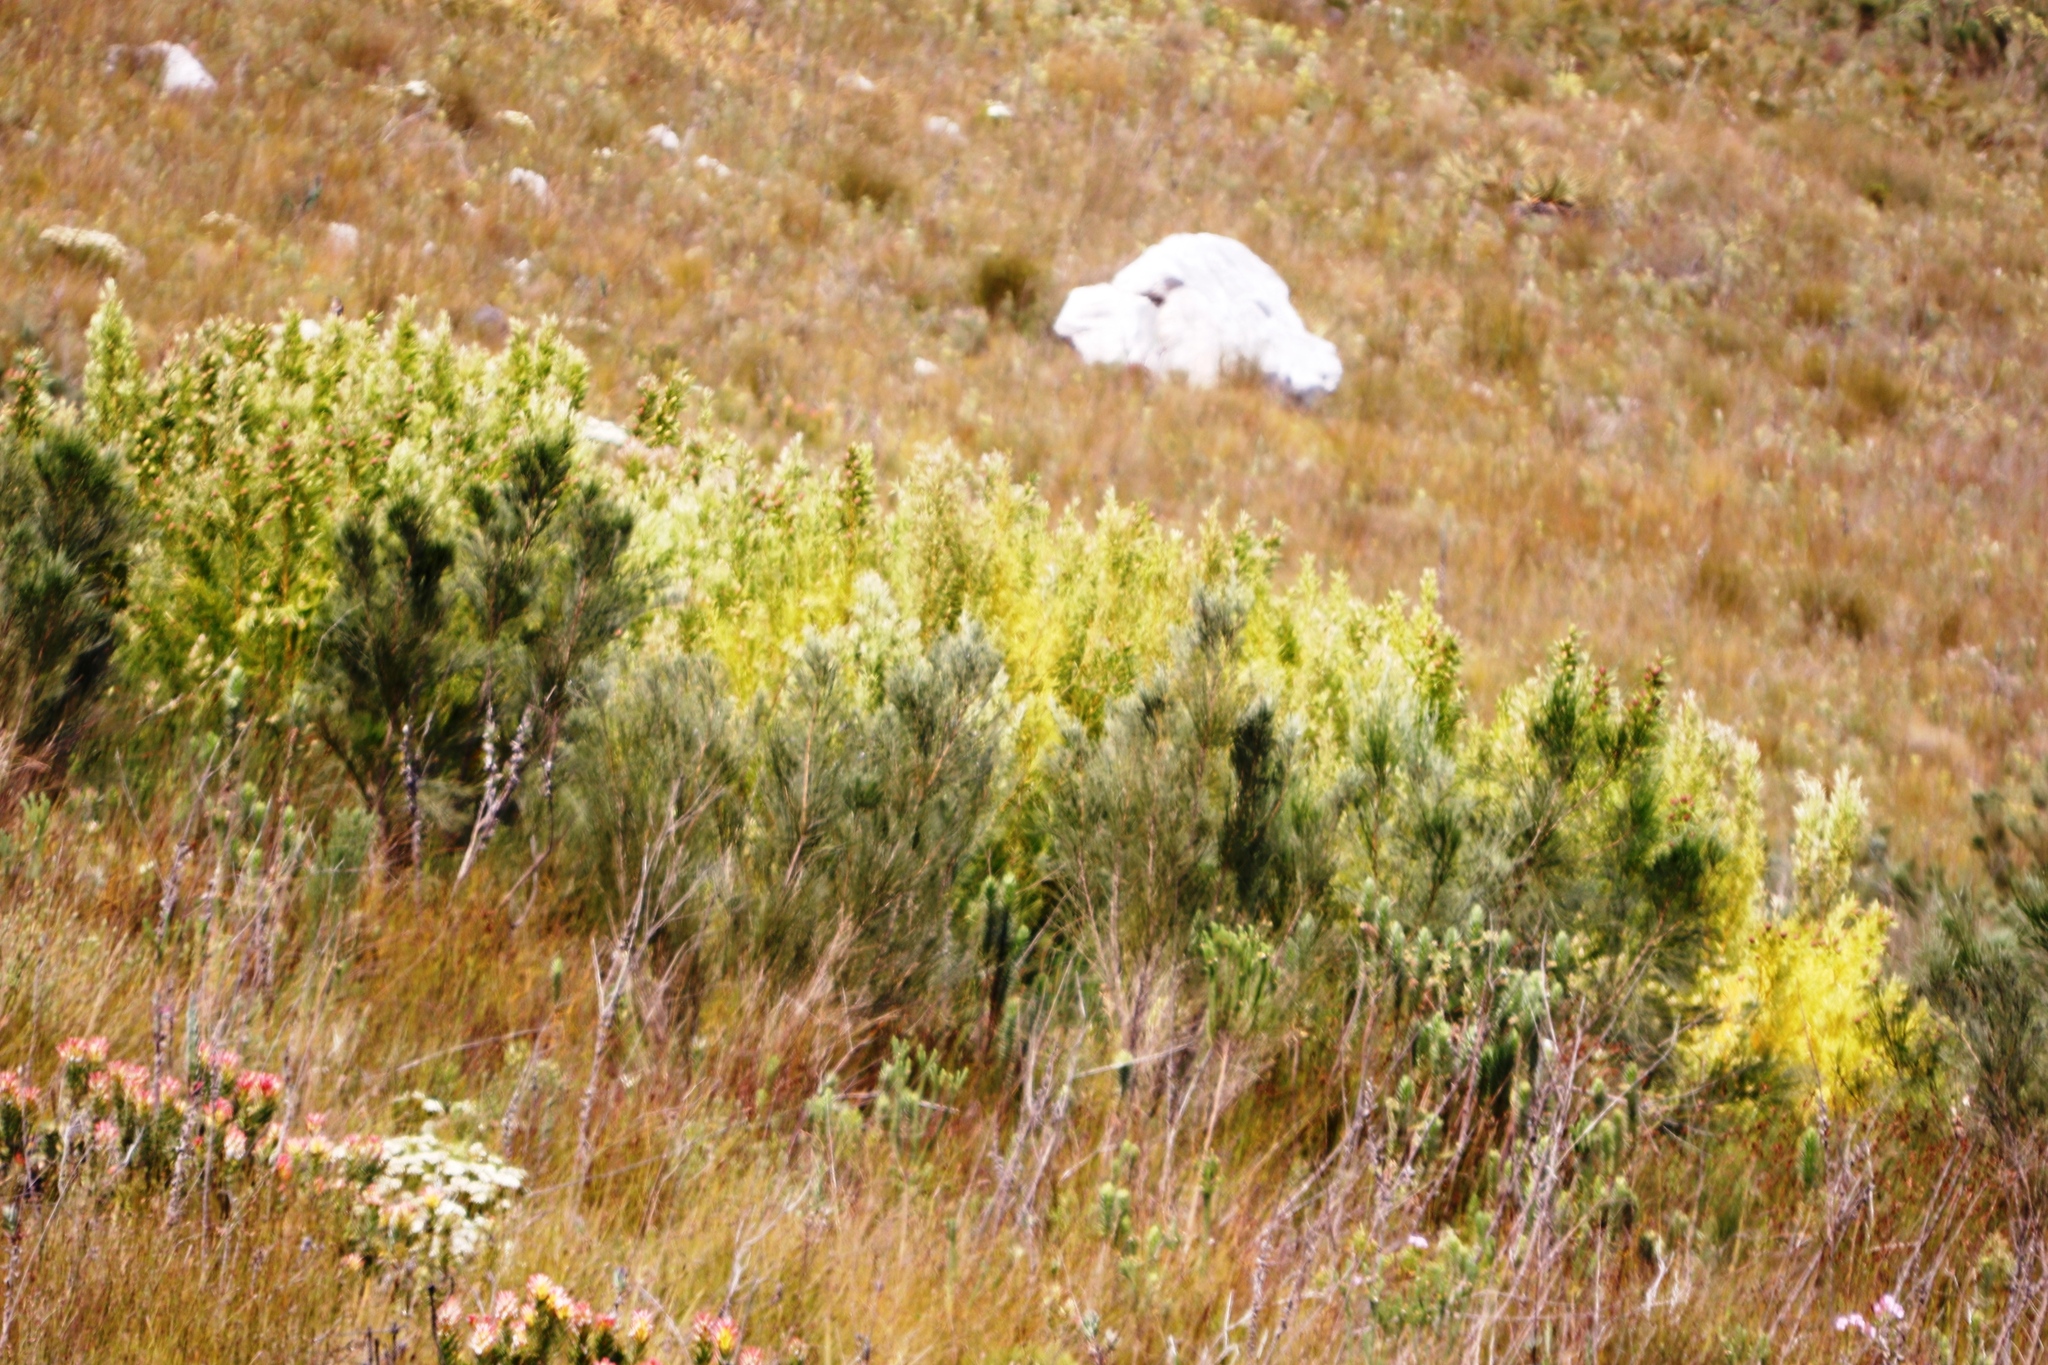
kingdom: Plantae
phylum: Tracheophyta
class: Magnoliopsida
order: Proteales
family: Proteaceae
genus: Leucadendron
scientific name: Leucadendron xanthoconus
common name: Sickle-leaf conebush
